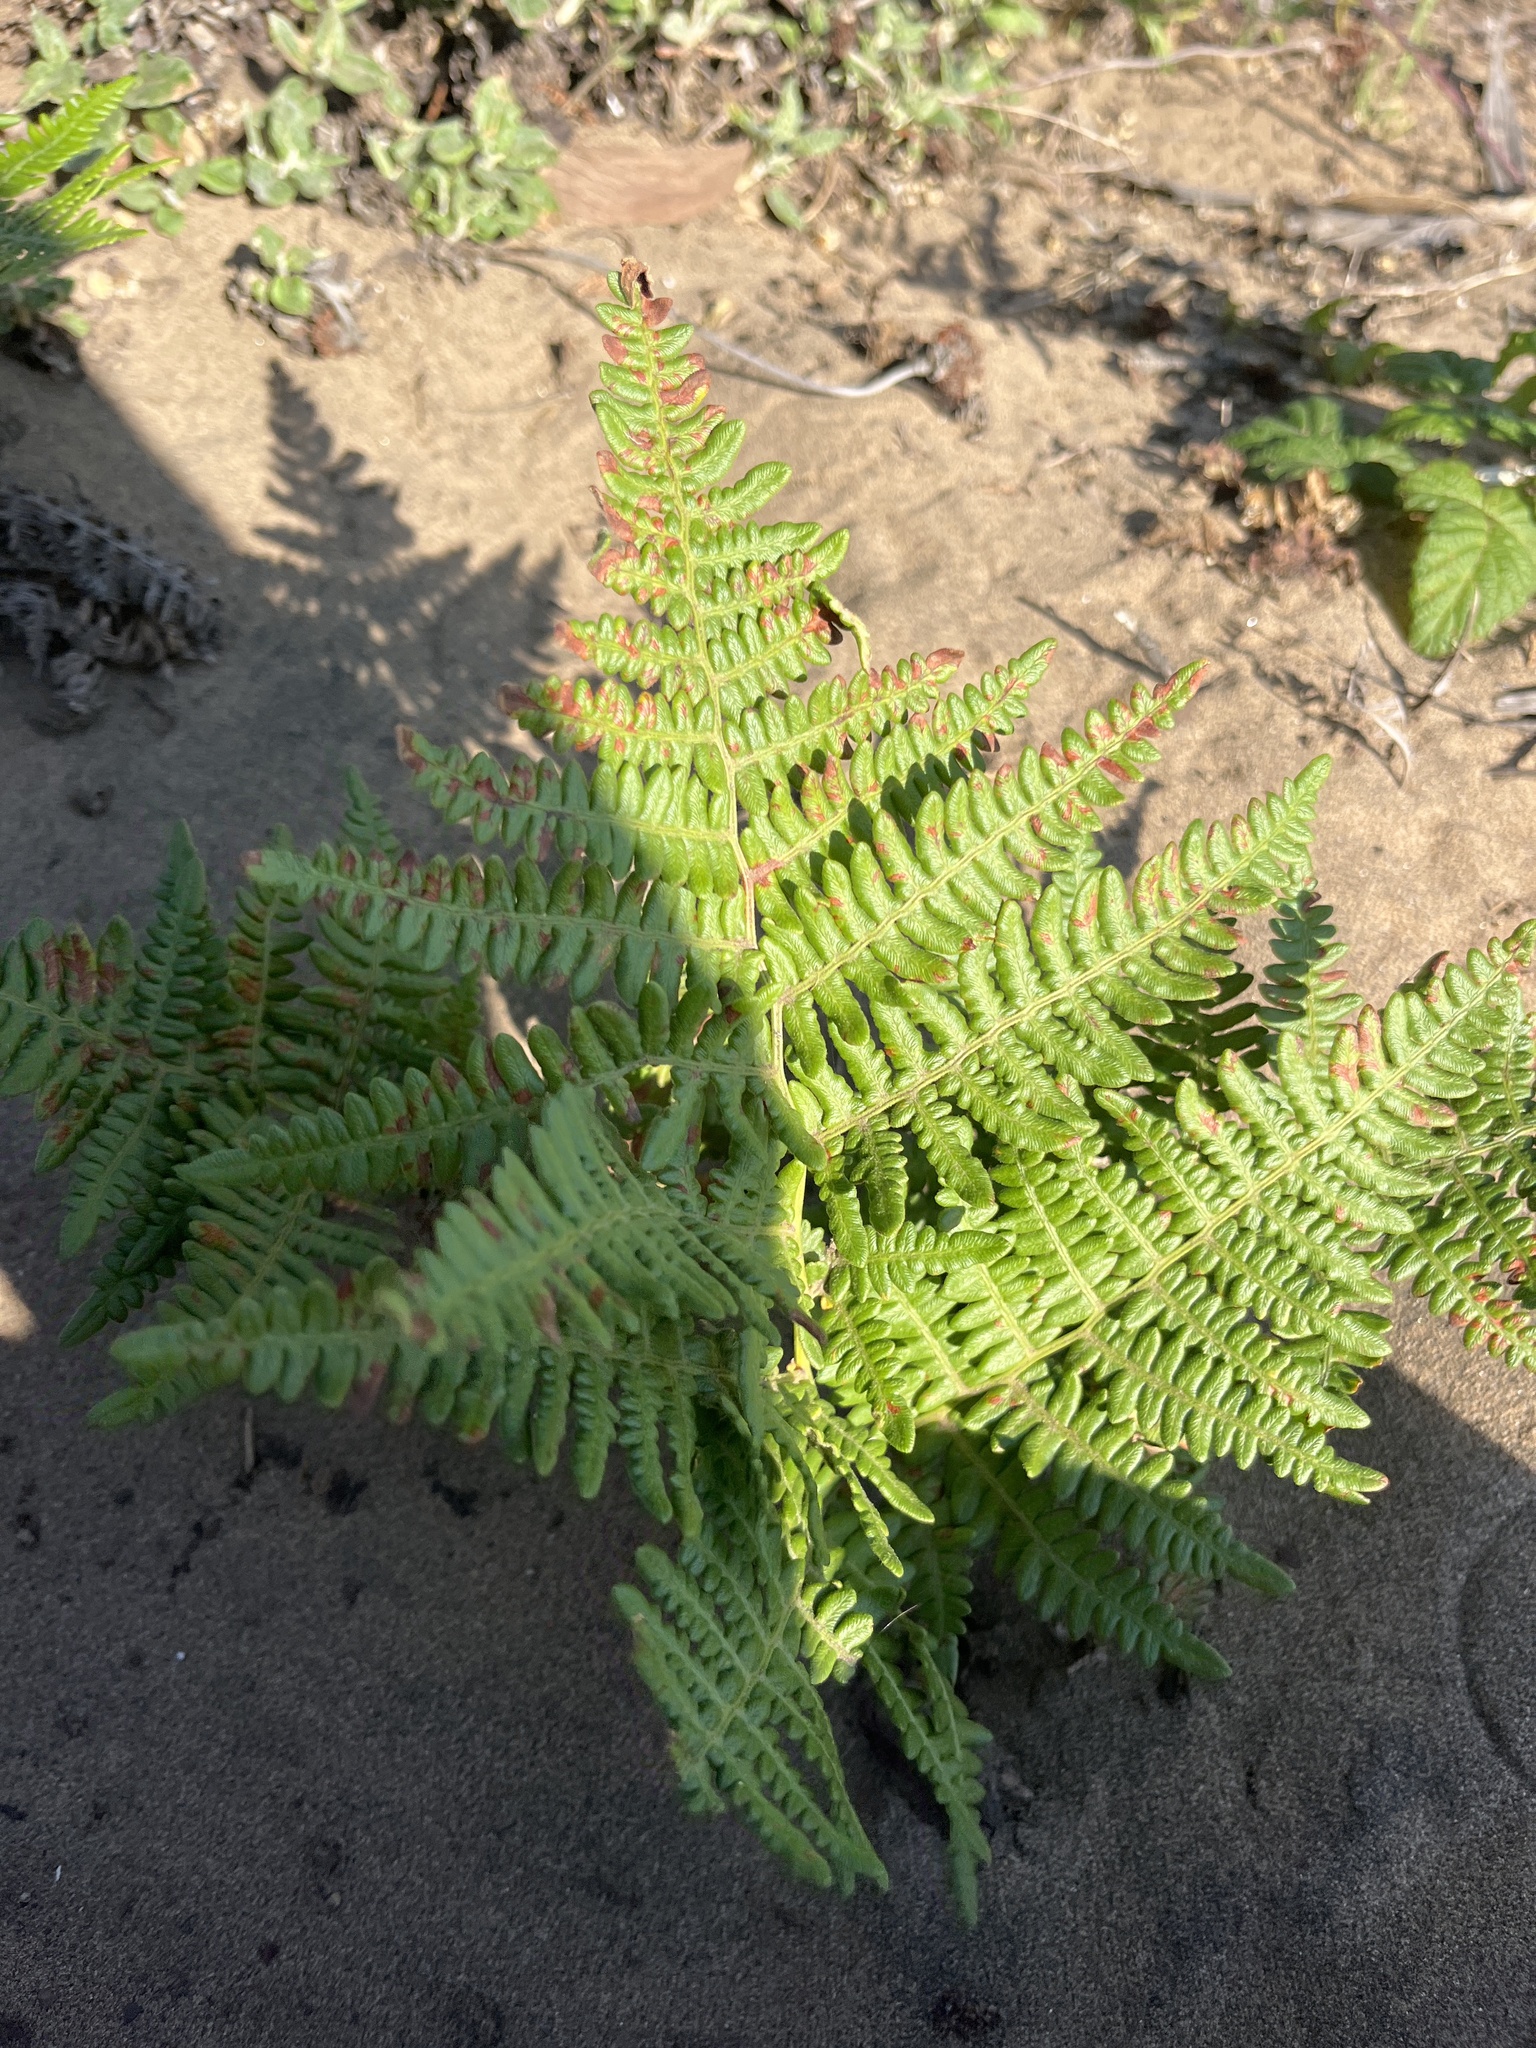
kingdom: Plantae
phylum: Tracheophyta
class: Polypodiopsida
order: Polypodiales
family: Dennstaedtiaceae
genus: Pteridium
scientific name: Pteridium aquilinum
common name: Bracken
